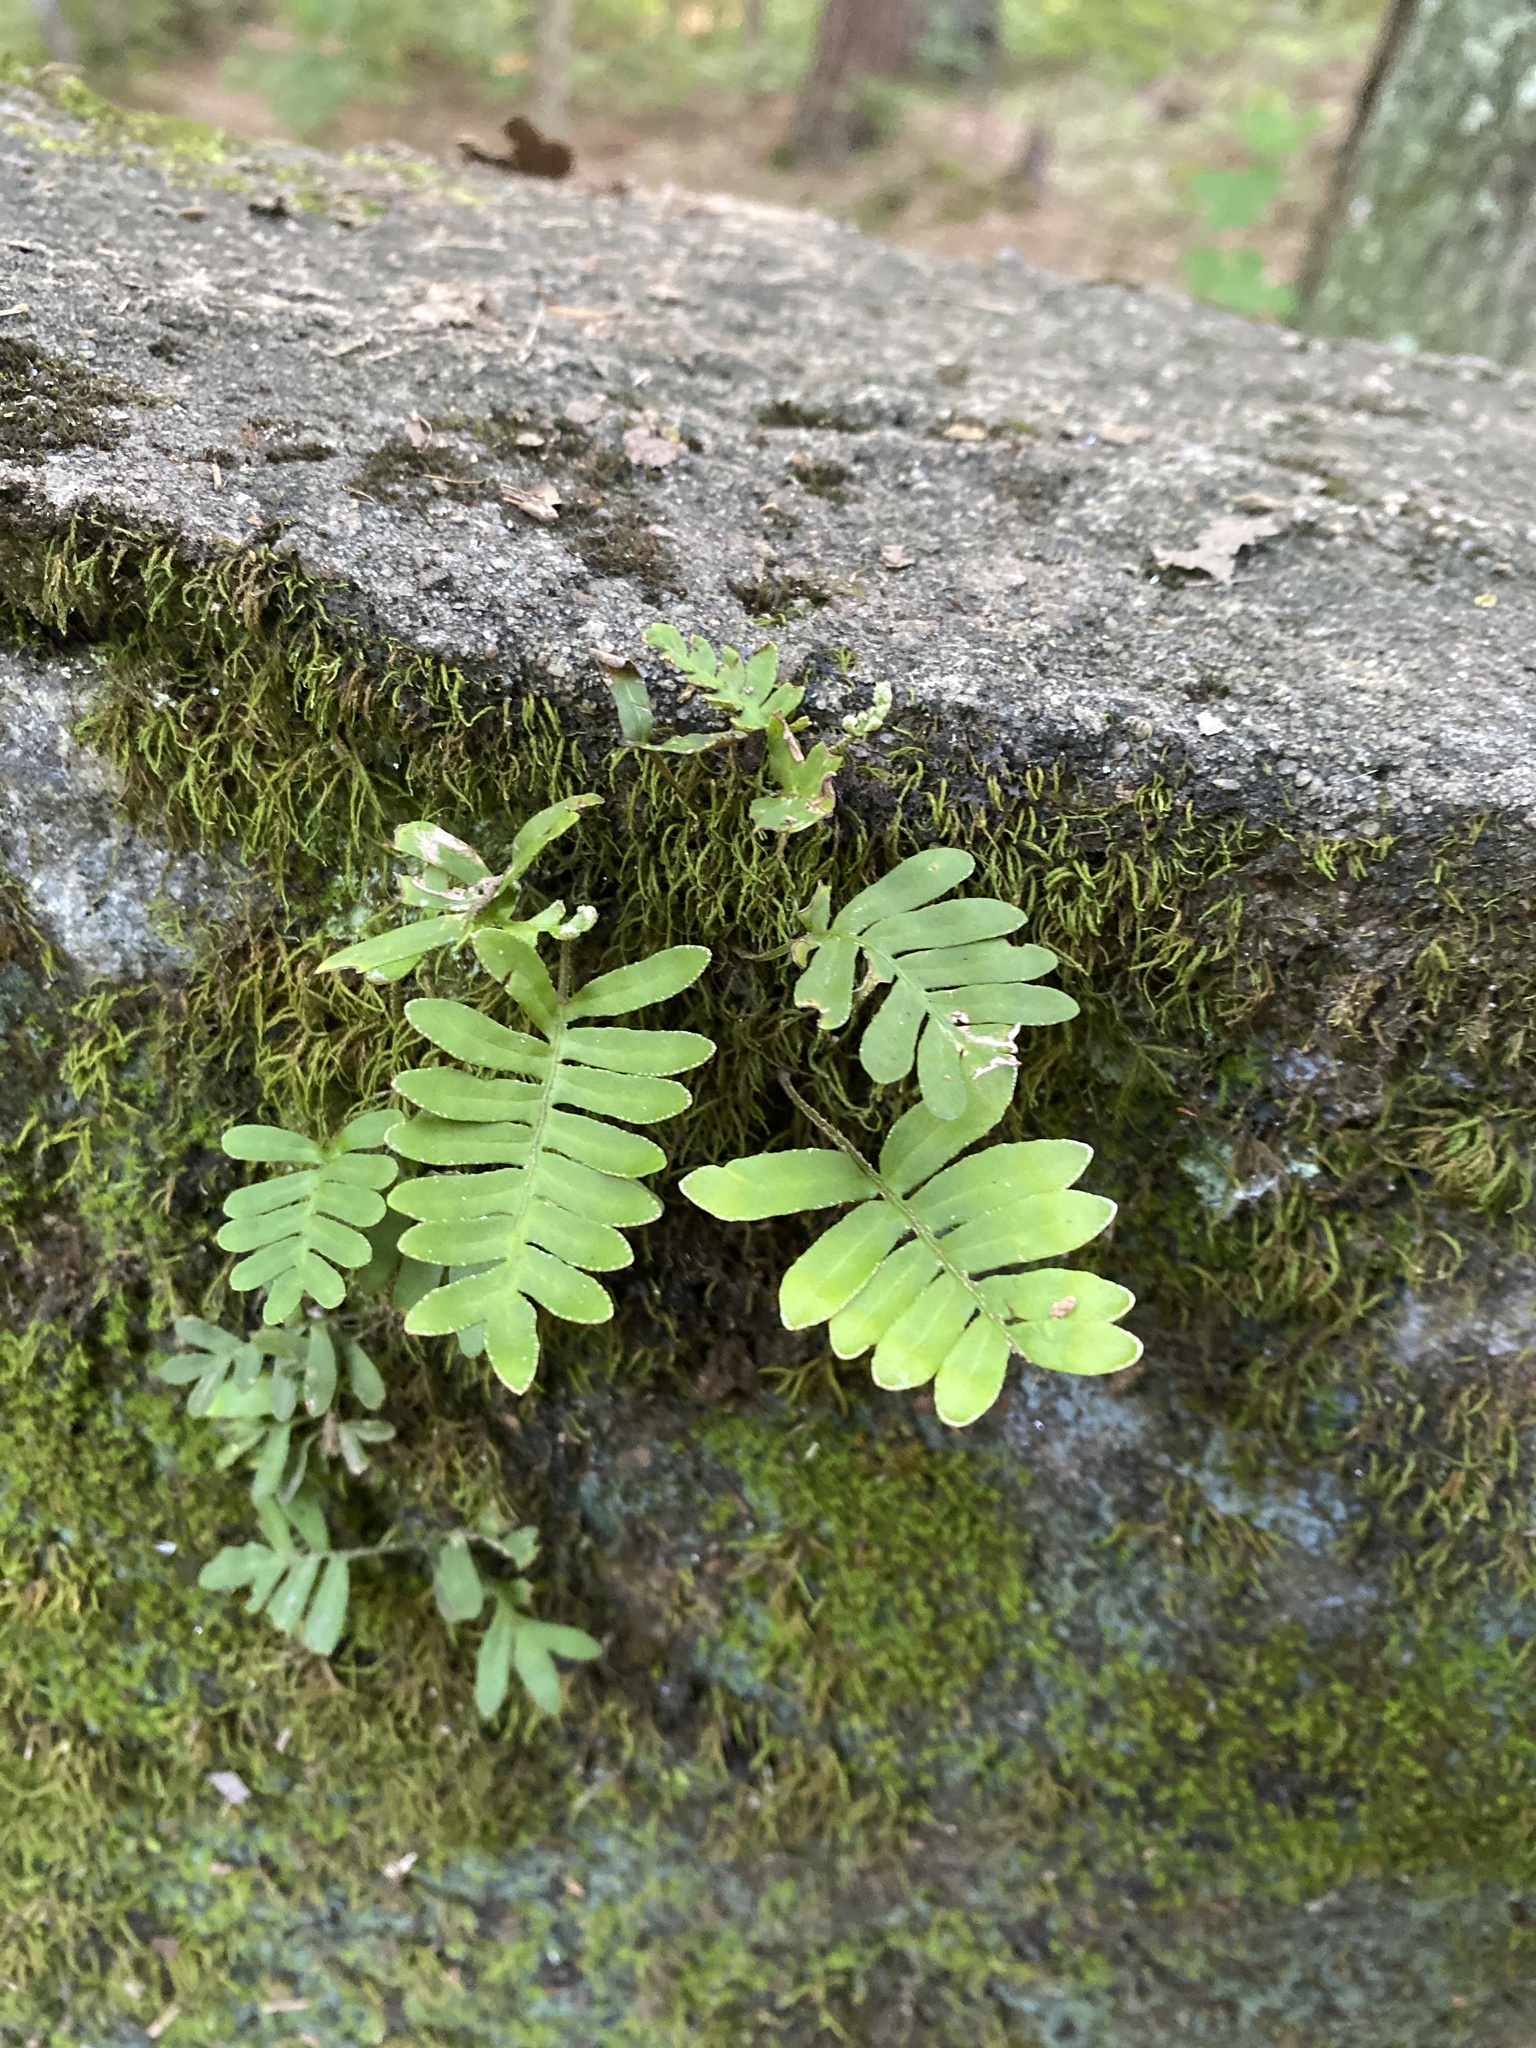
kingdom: Plantae
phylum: Tracheophyta
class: Polypodiopsida
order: Polypodiales
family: Polypodiaceae
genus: Pleopeltis
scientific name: Pleopeltis michauxiana
